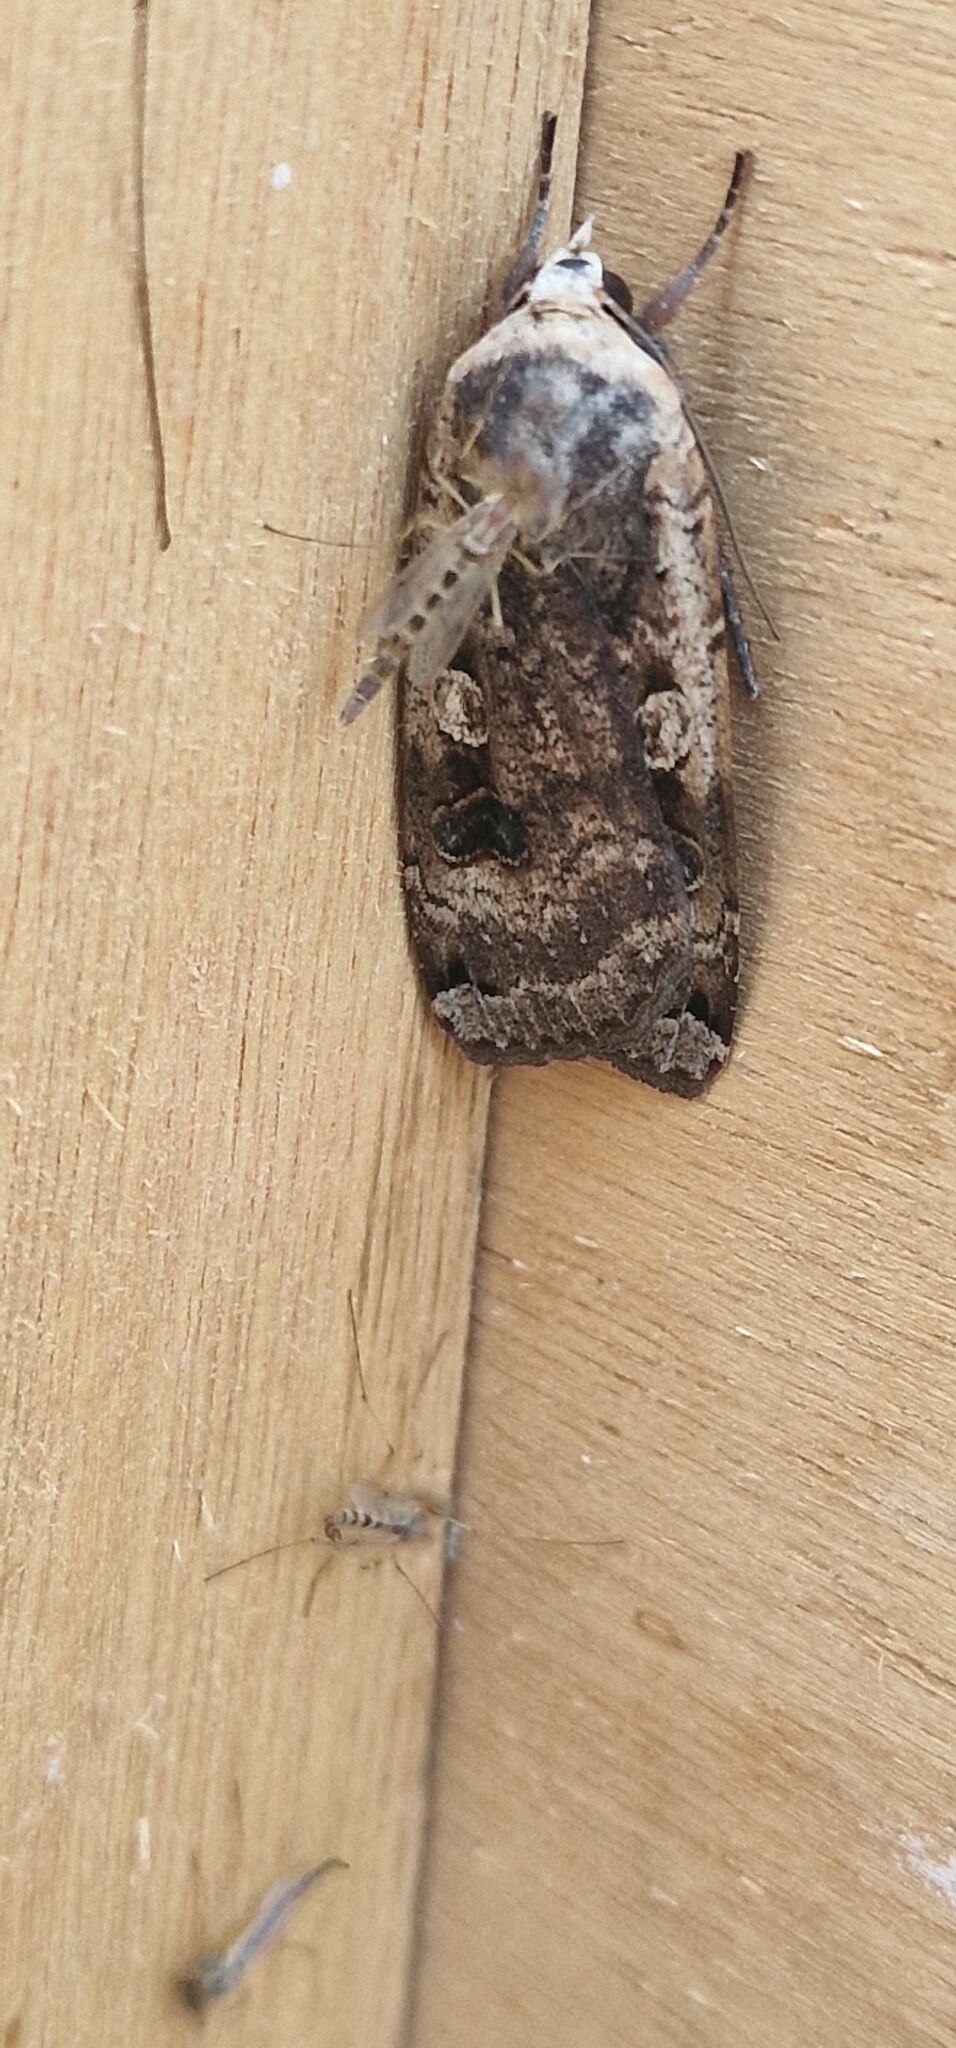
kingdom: Animalia
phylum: Arthropoda
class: Insecta
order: Lepidoptera
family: Noctuidae
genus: Noctua
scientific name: Noctua pronuba
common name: Large yellow underwing
